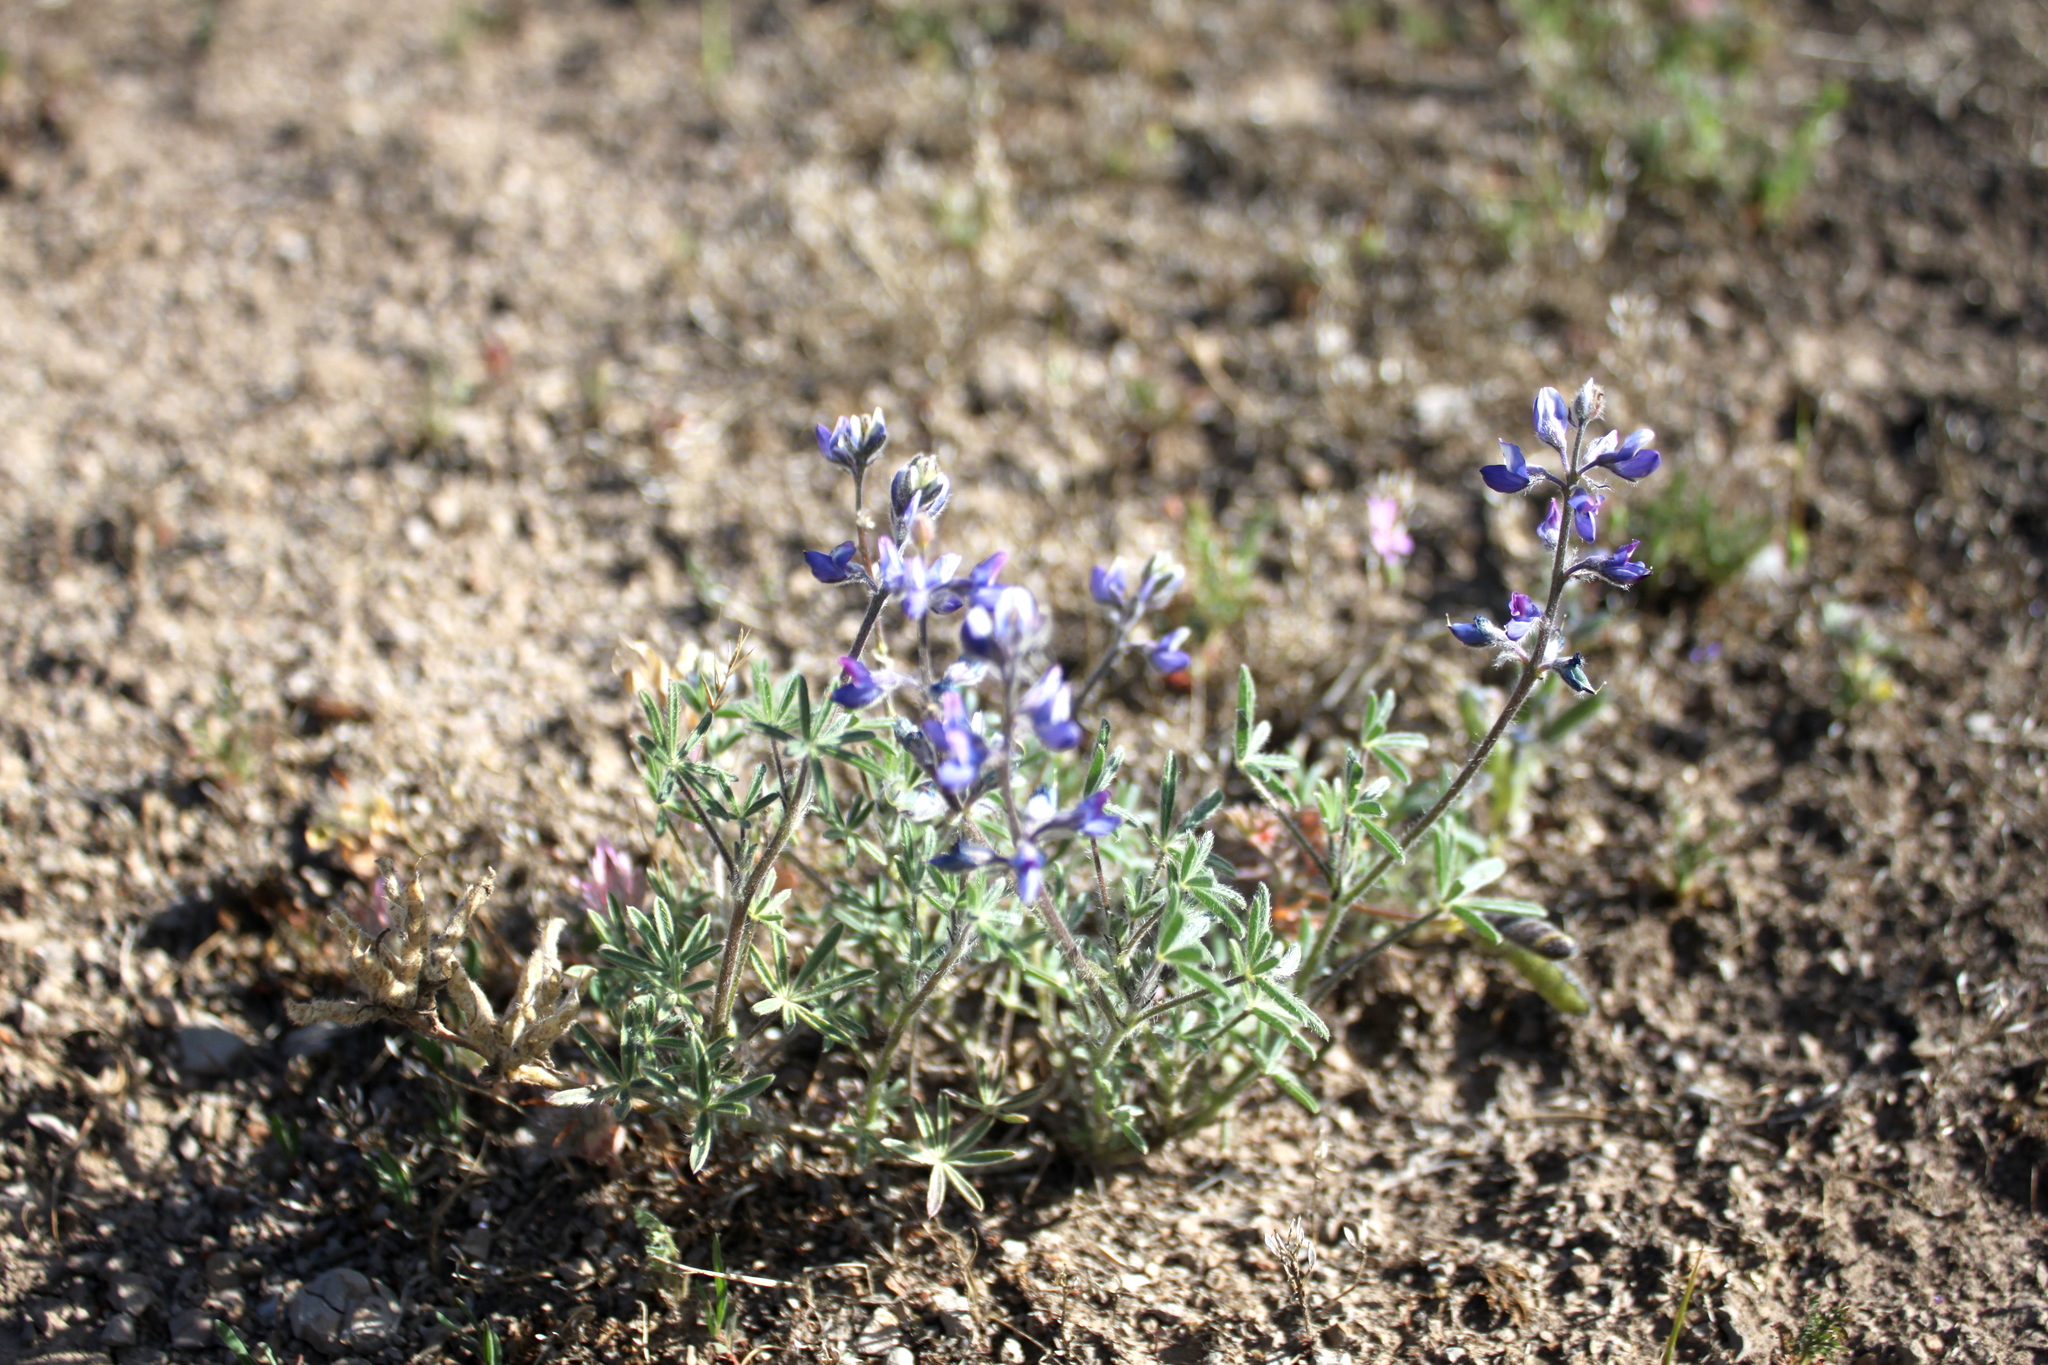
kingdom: Plantae
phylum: Tracheophyta
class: Magnoliopsida
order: Fabales
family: Fabaceae
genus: Lupinus
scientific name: Lupinus bicolor
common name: Miniature lupine
